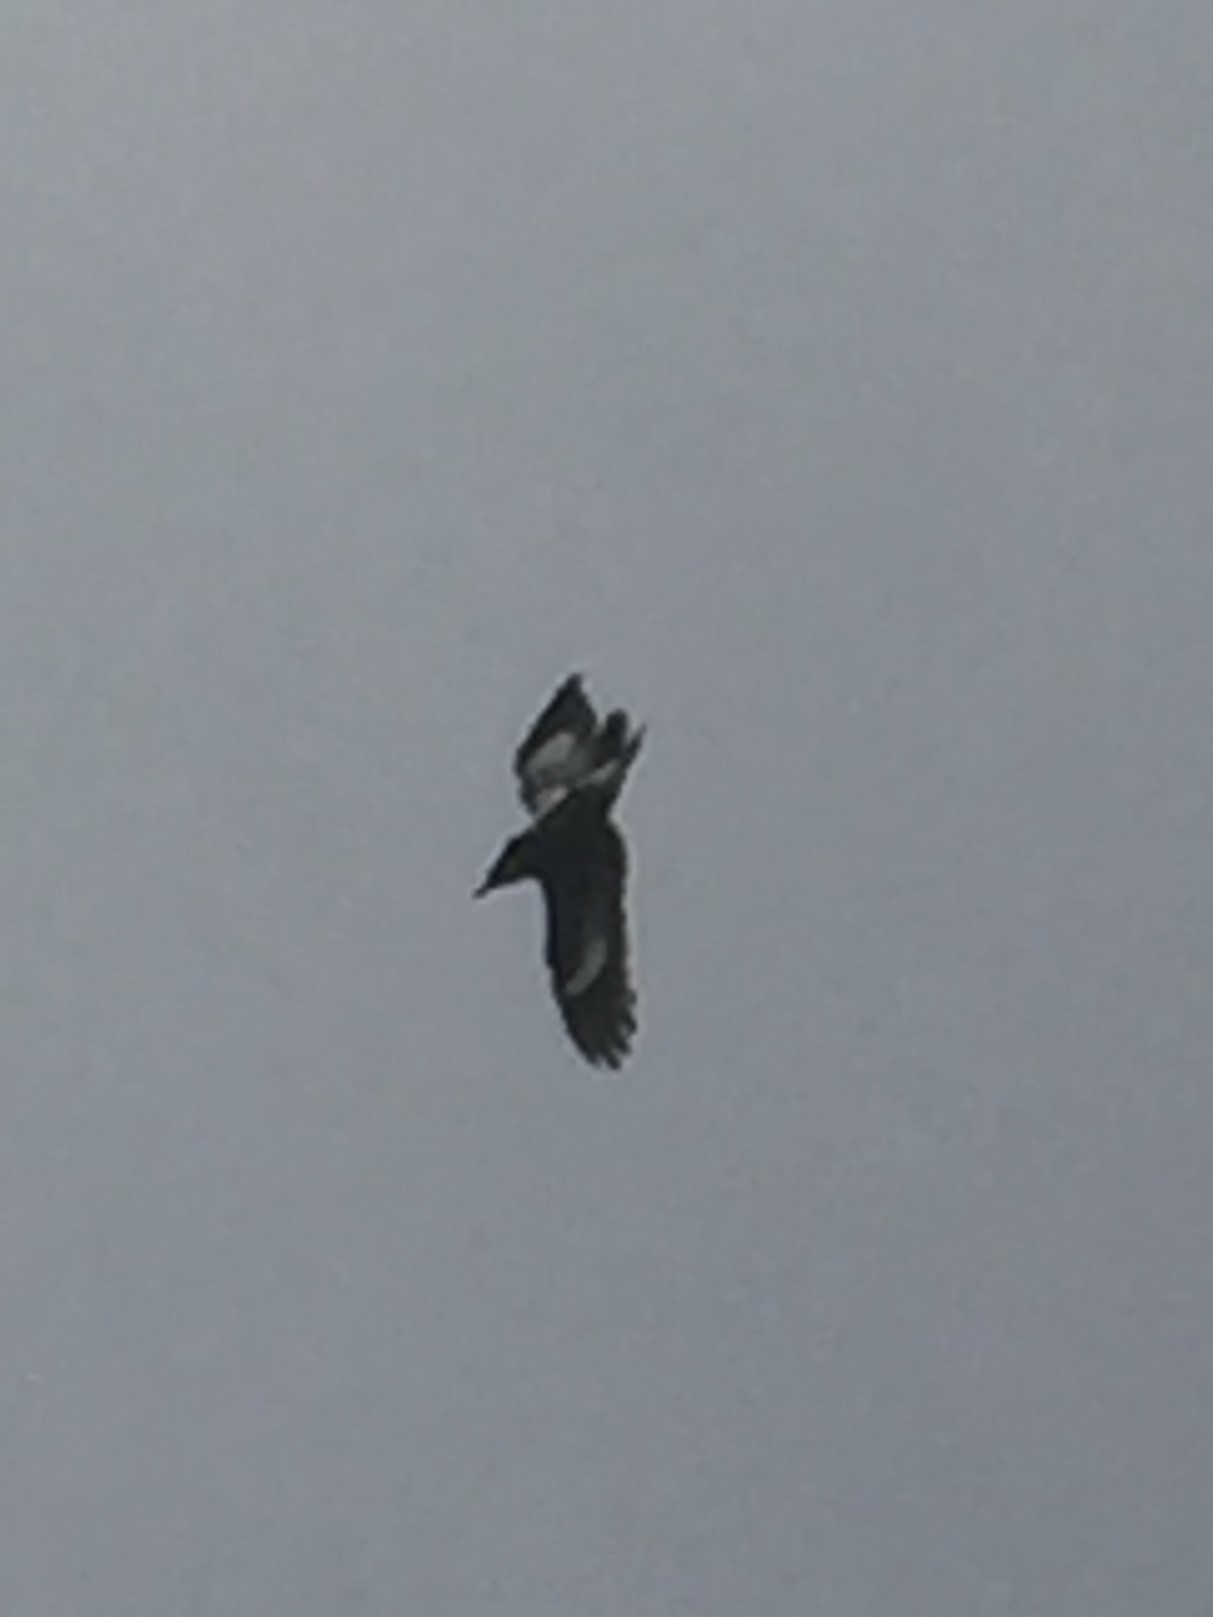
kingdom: Animalia
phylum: Chordata
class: Aves
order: Piciformes
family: Picidae
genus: Melanerpes
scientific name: Melanerpes formicivorus
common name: Acorn woodpecker
